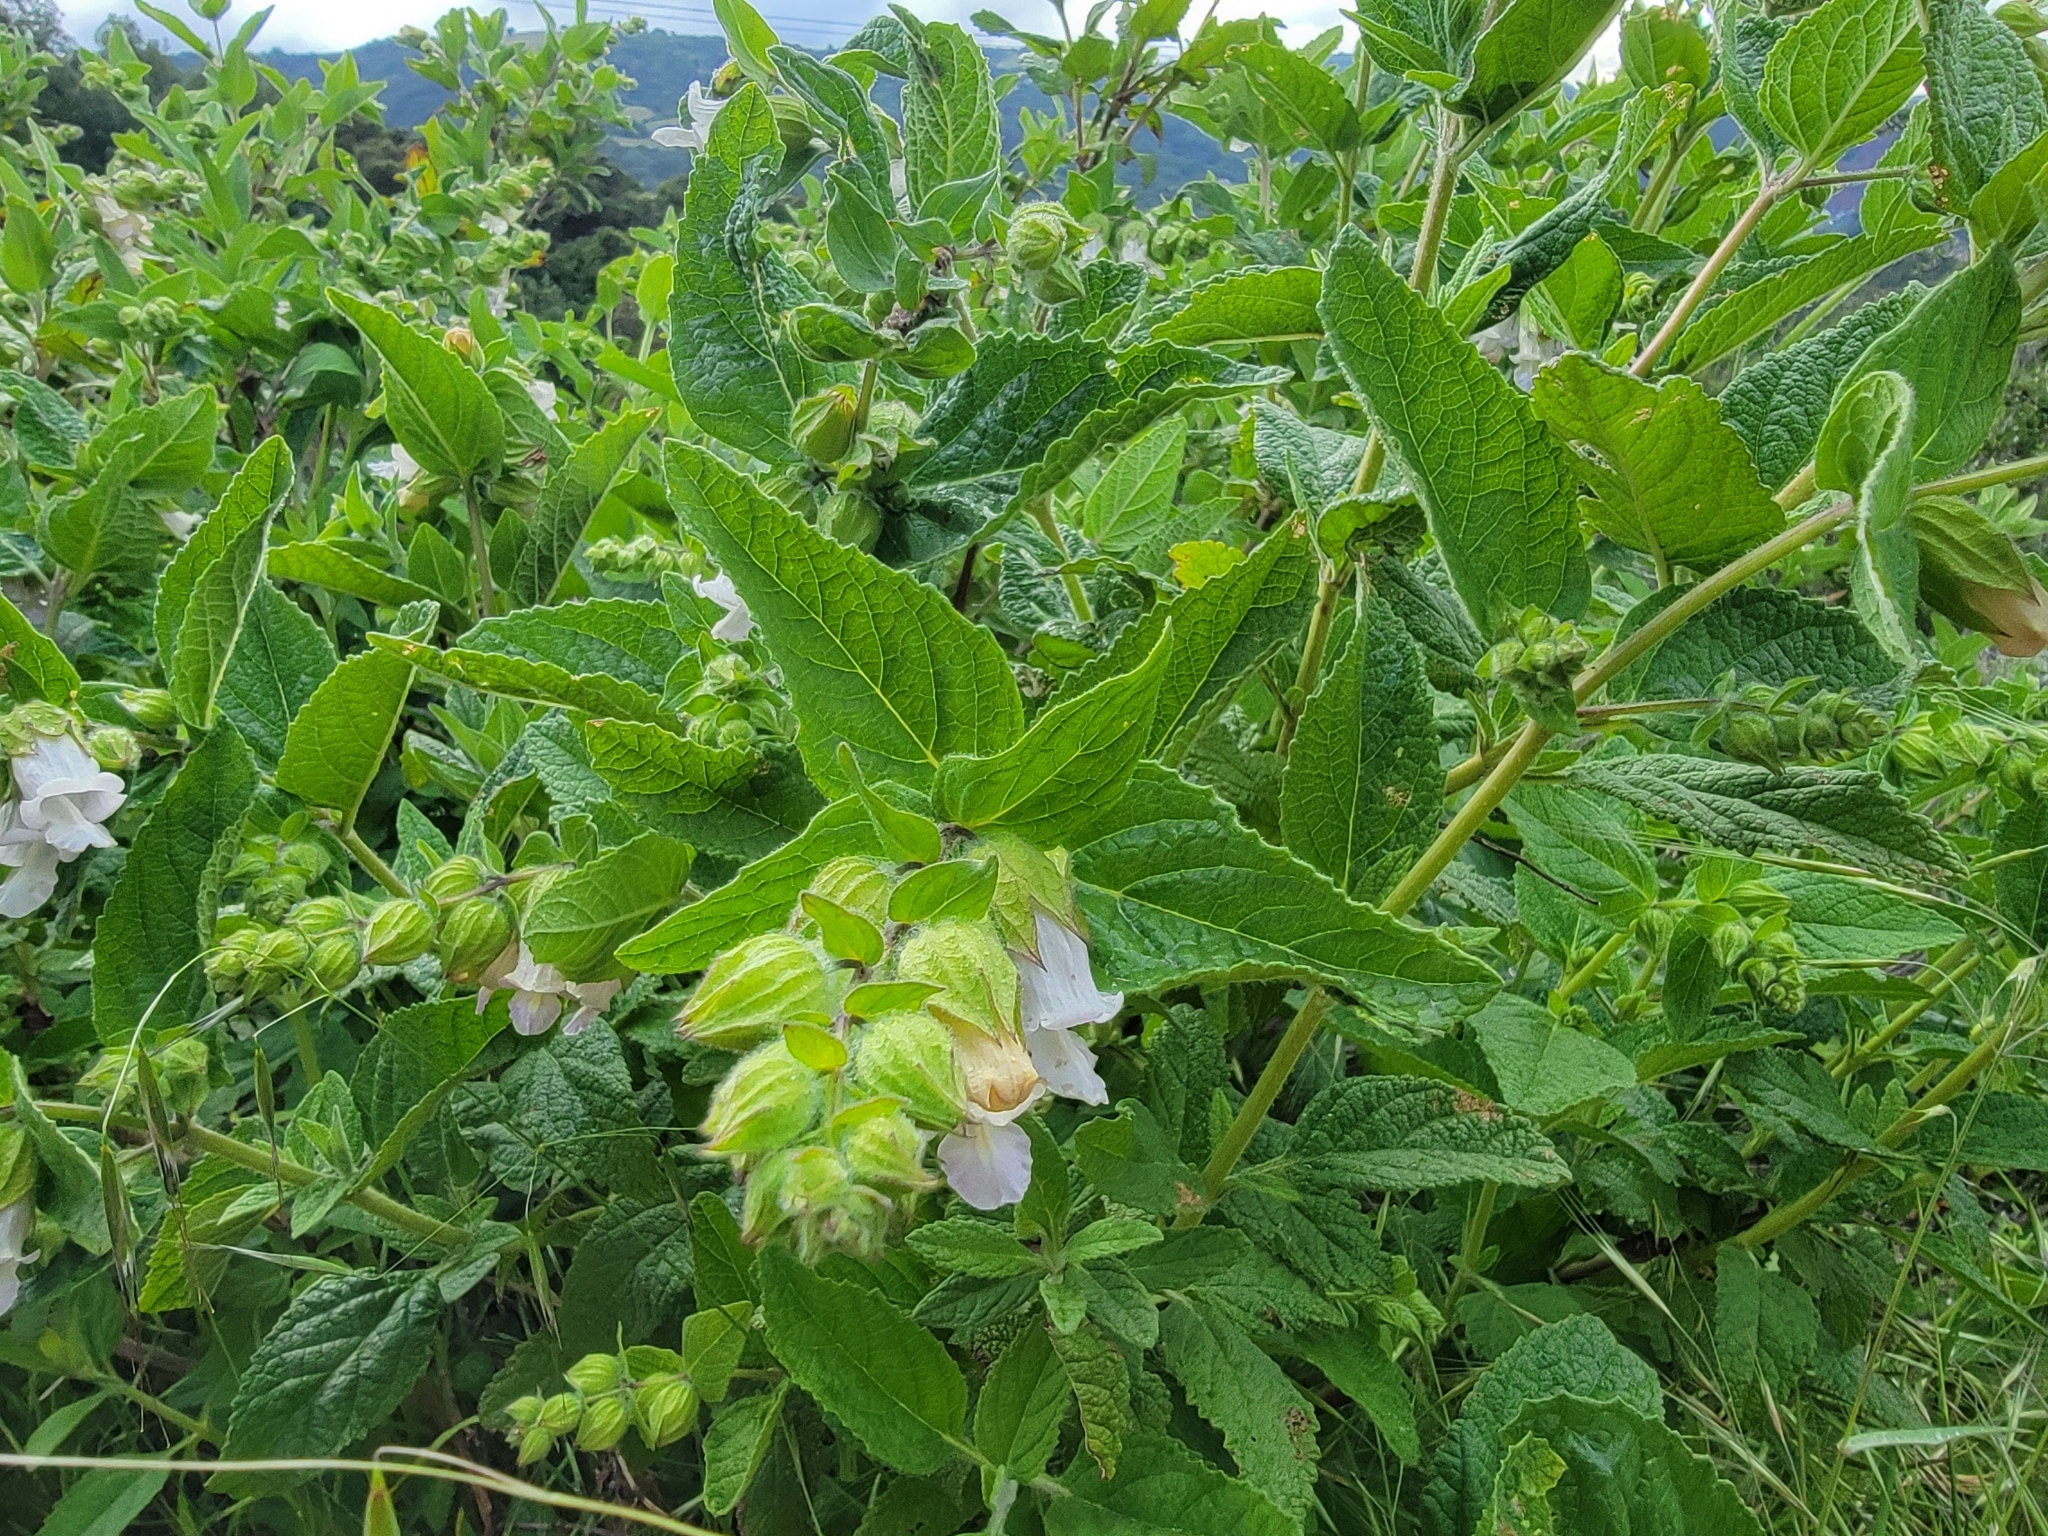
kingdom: Plantae
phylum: Tracheophyta
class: Magnoliopsida
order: Lamiales
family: Lamiaceae
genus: Lepechinia
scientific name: Lepechinia calycina
